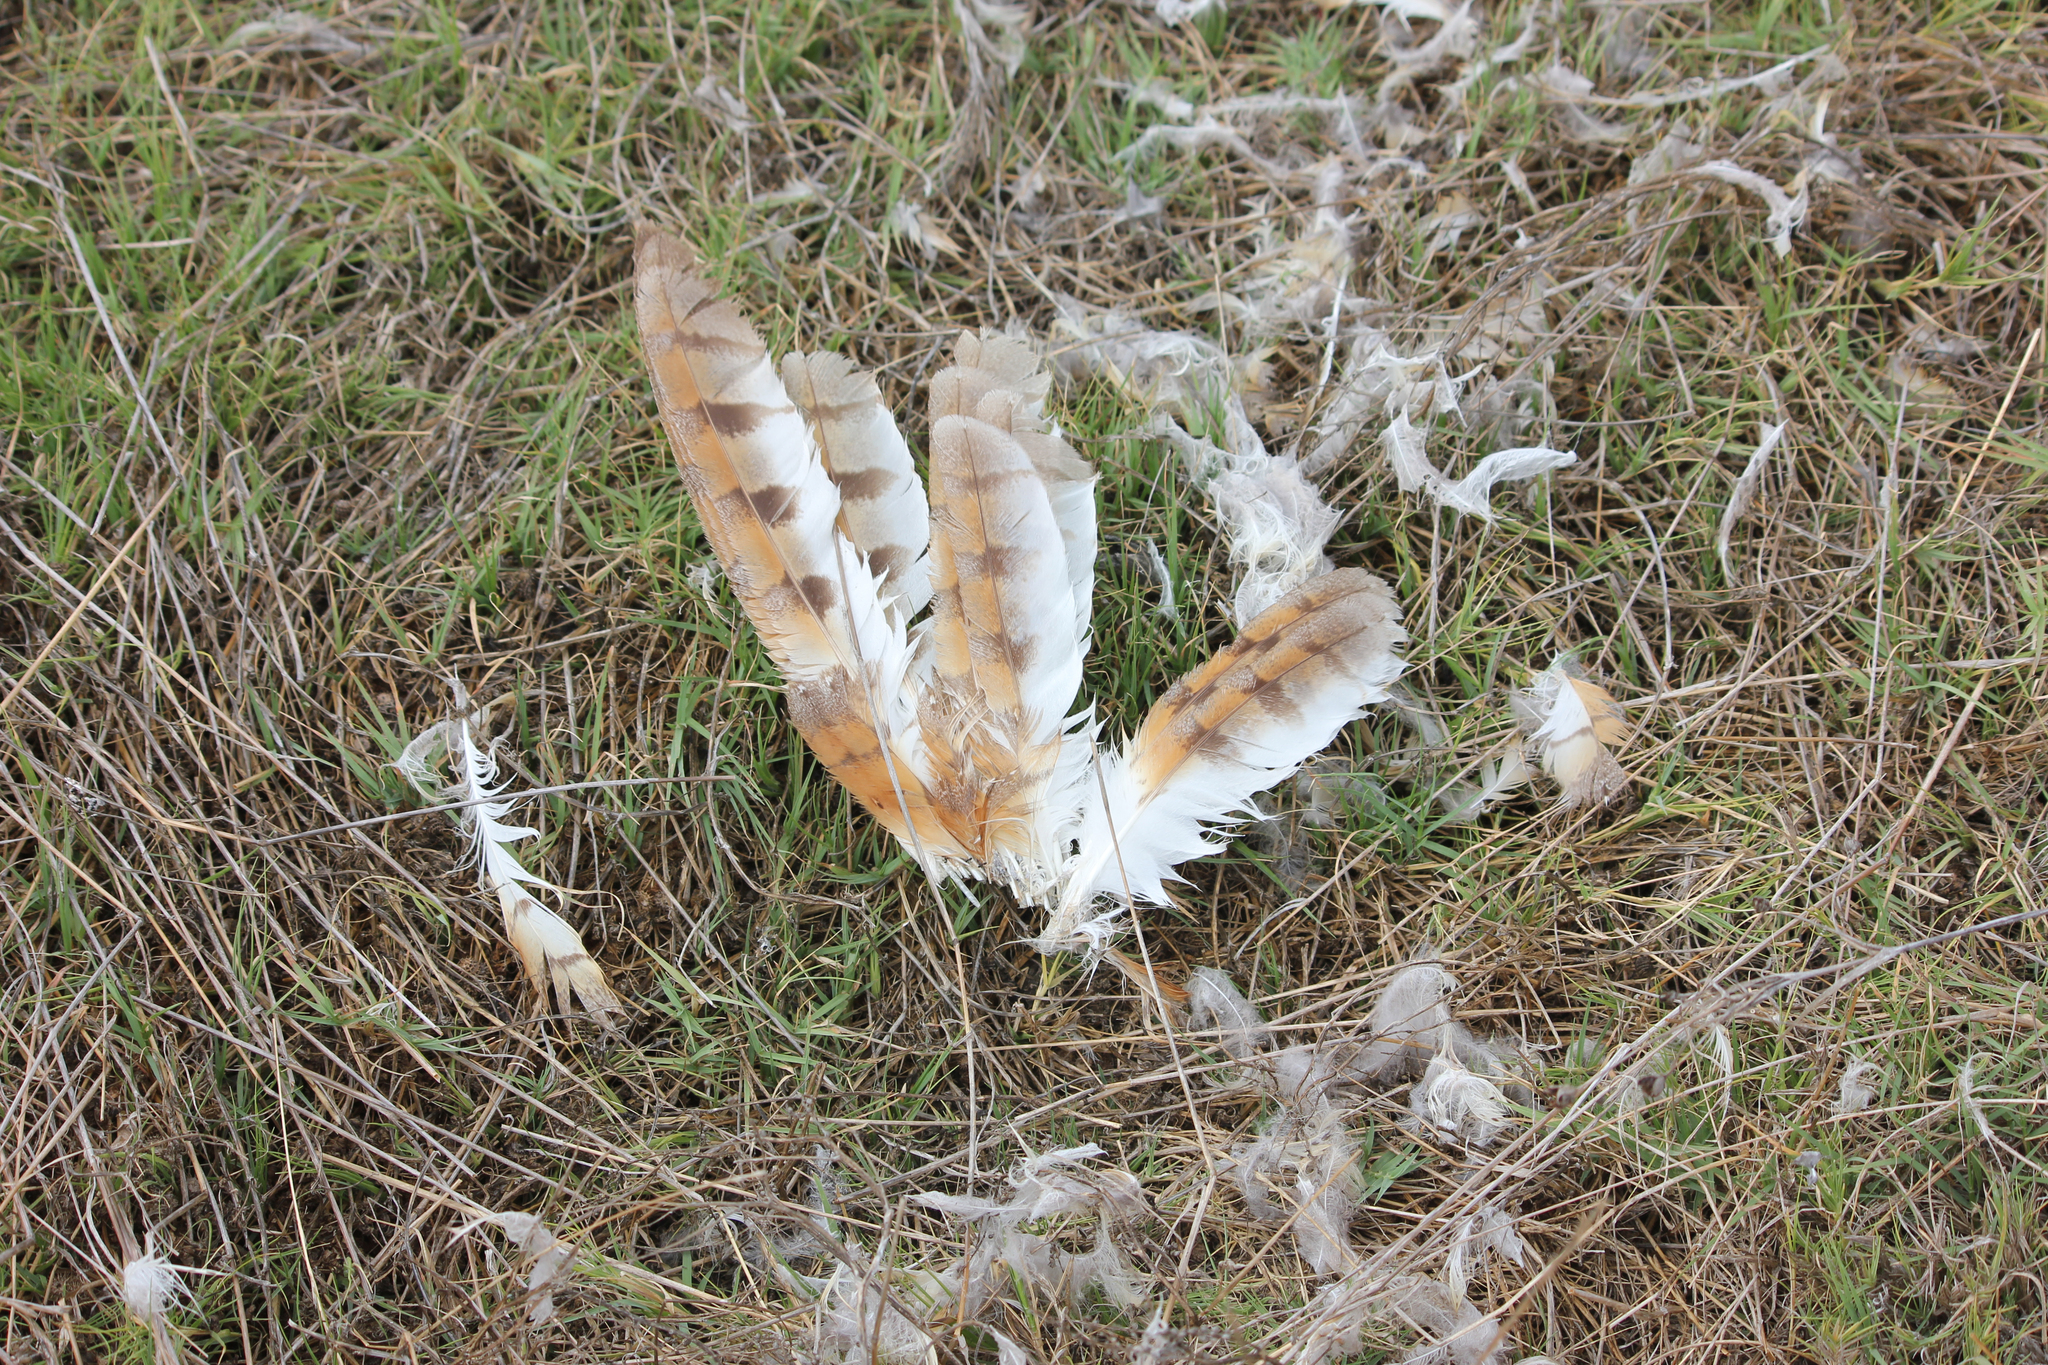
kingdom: Animalia
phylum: Chordata
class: Aves
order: Strigiformes
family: Tytonidae
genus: Tyto
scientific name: Tyto alba
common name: Barn owl
